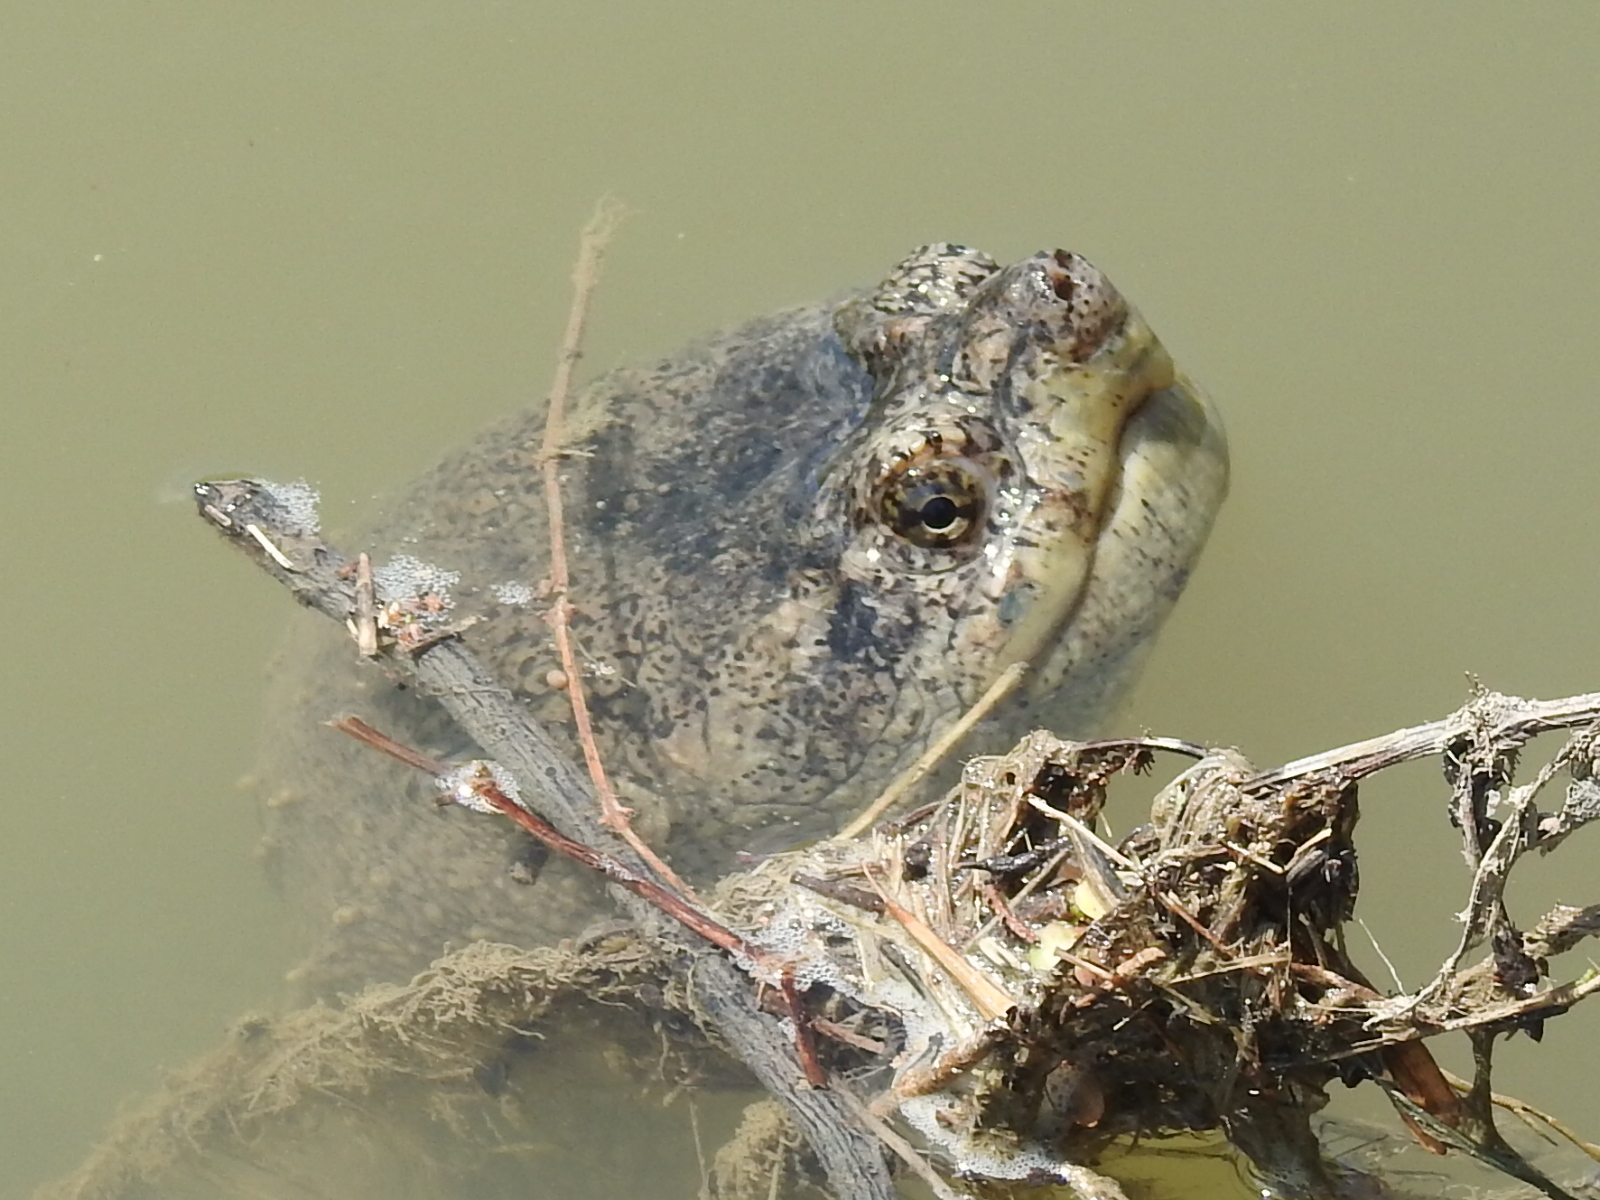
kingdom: Animalia
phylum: Chordata
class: Testudines
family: Chelydridae
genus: Chelydra
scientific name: Chelydra serpentina
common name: Common snapping turtle
